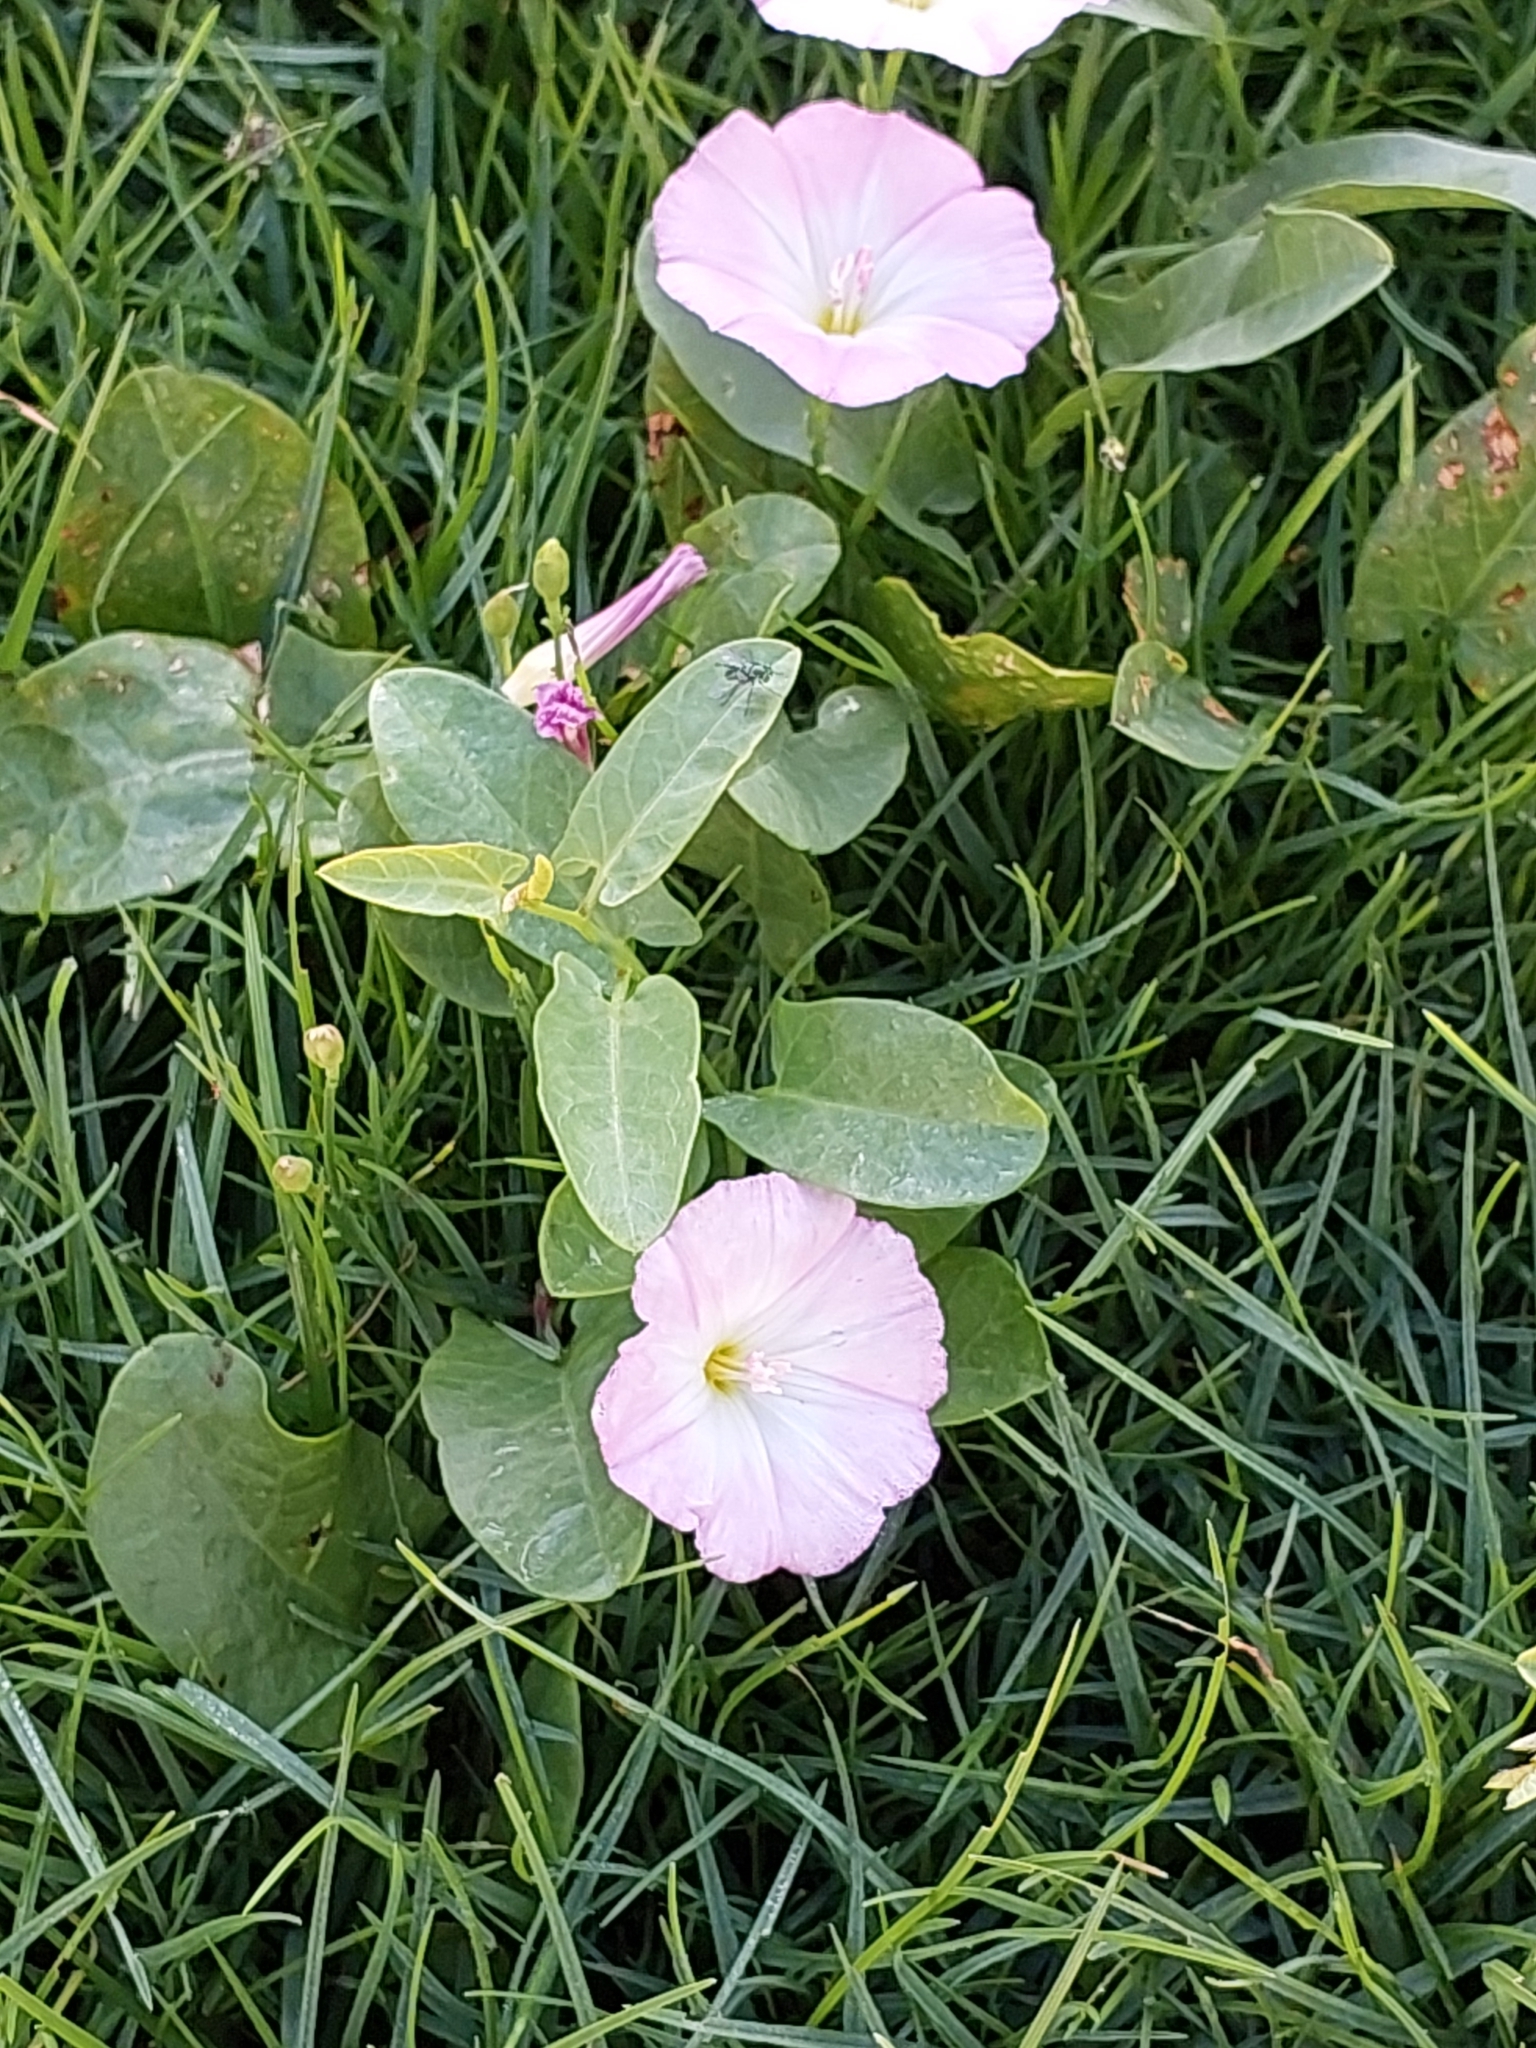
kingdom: Plantae
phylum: Tracheophyta
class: Magnoliopsida
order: Solanales
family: Convolvulaceae
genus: Convolvulus
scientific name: Convolvulus arvensis
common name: Field bindweed
